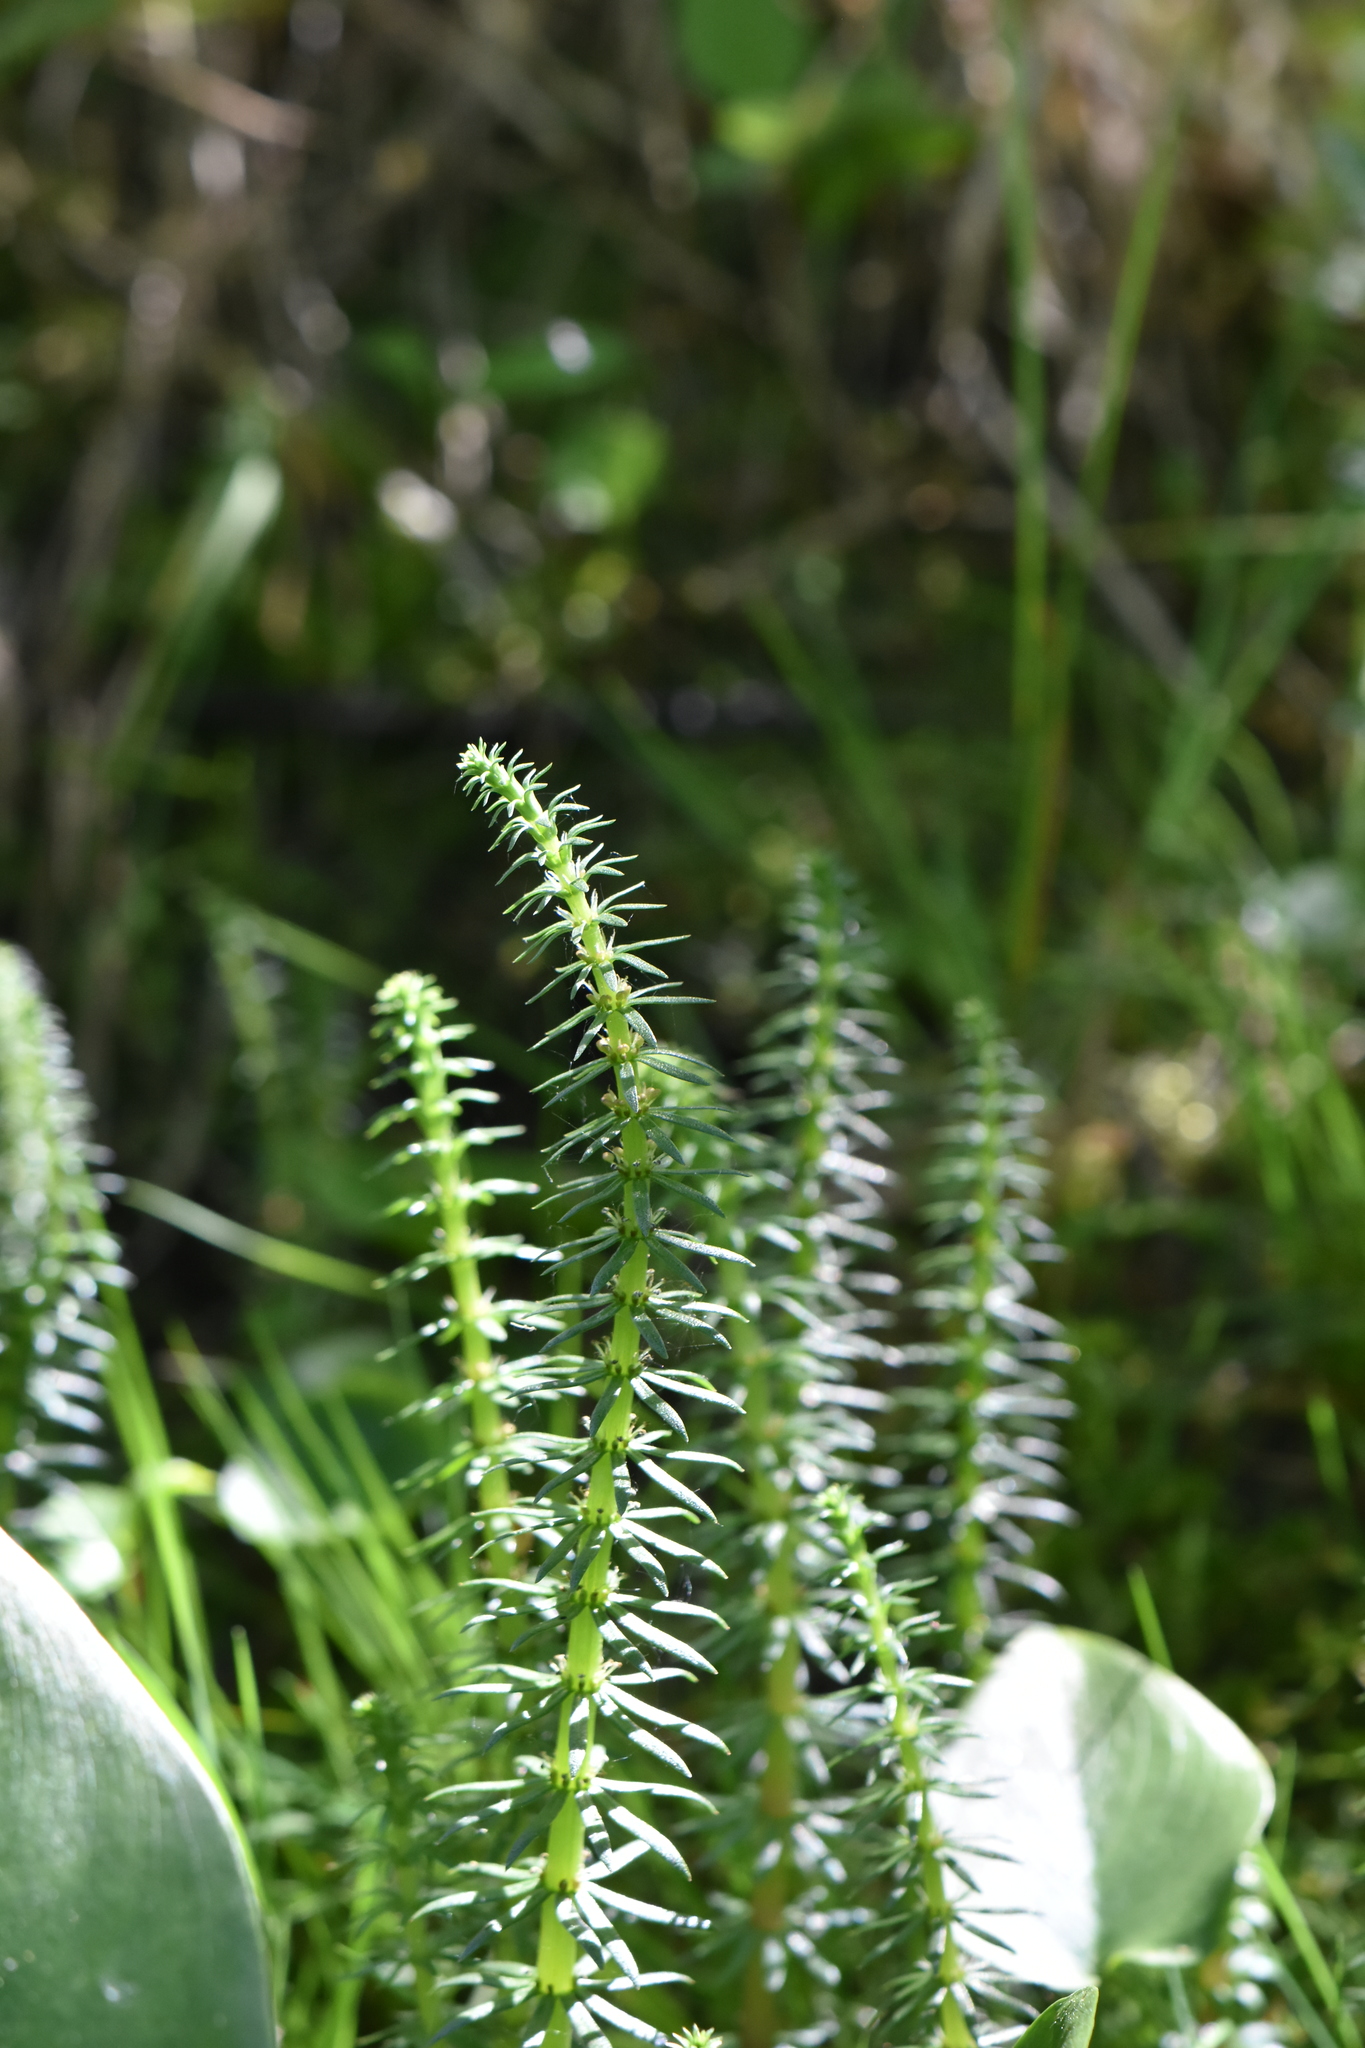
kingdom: Plantae
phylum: Tracheophyta
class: Magnoliopsida
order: Lamiales
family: Plantaginaceae
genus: Hippuris
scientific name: Hippuris vulgaris
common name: Mare's-tail
